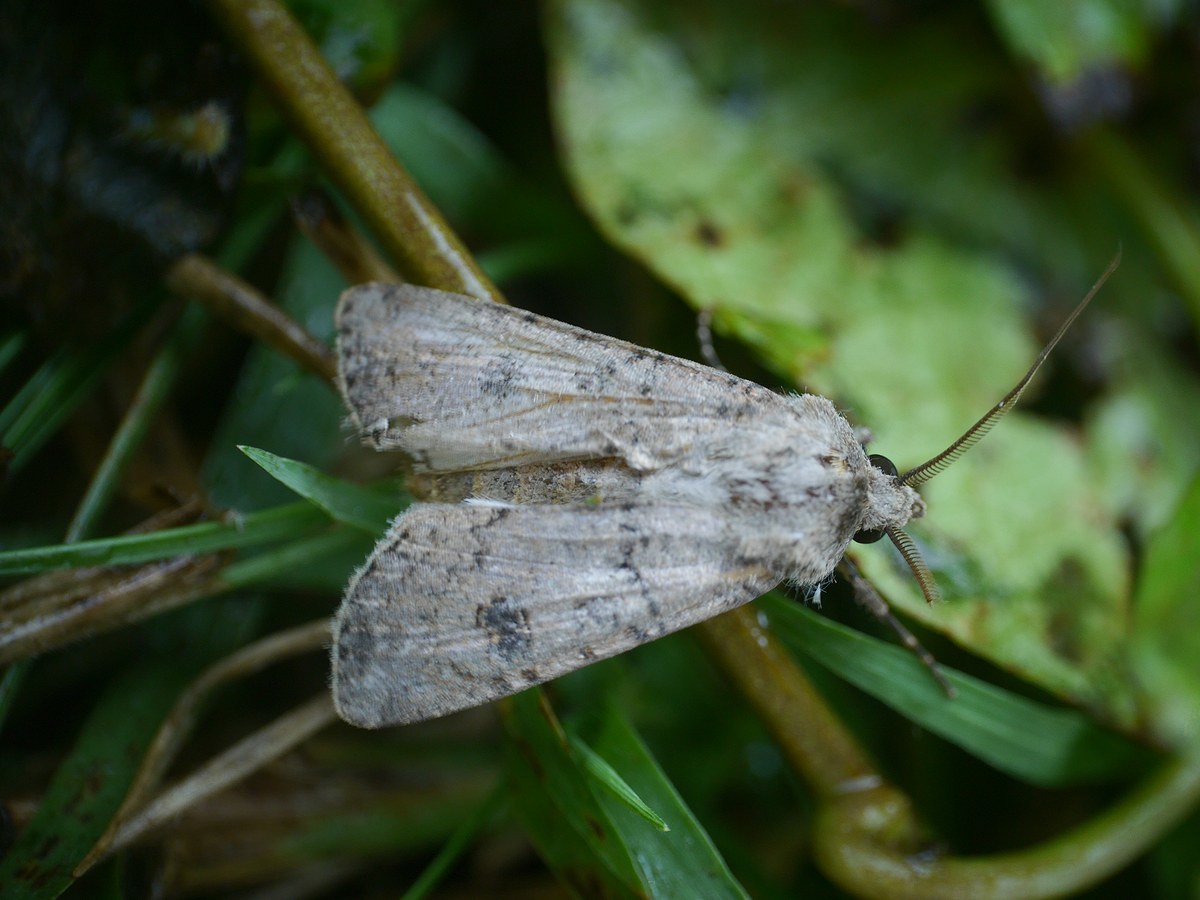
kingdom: Animalia
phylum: Arthropoda
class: Insecta
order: Lepidoptera
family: Noctuidae
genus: Agrotis
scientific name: Agrotis segetum
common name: Turnip moth
